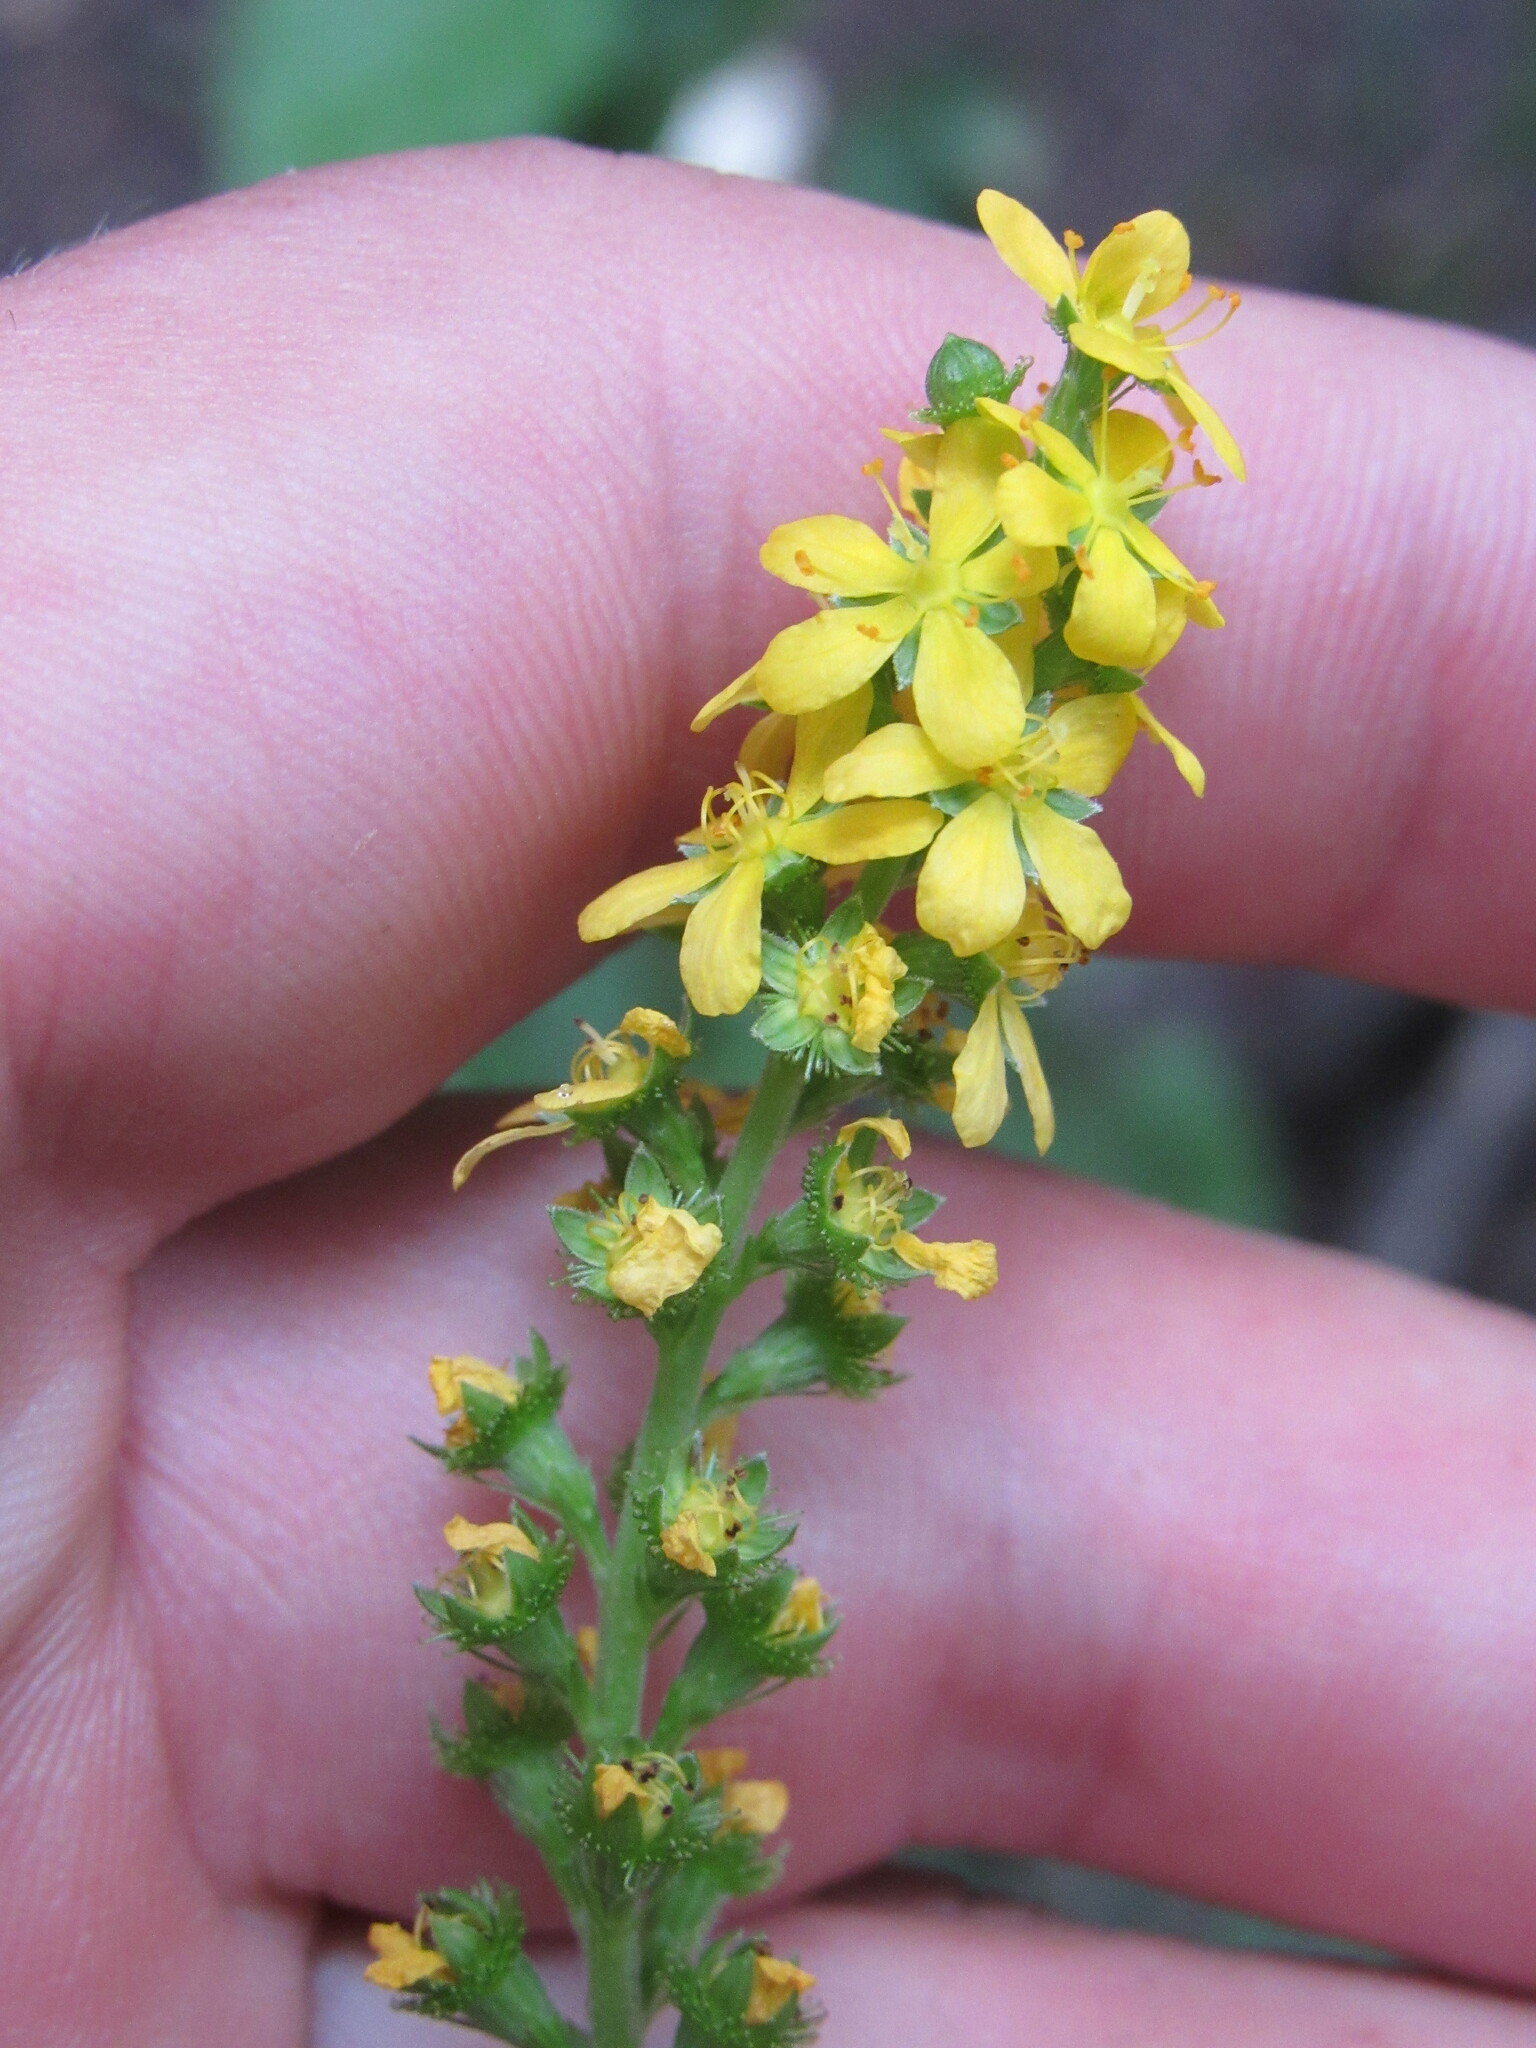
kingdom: Plantae
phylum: Tracheophyta
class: Magnoliopsida
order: Rosales
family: Rosaceae
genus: Agrimonia
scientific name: Agrimonia striata
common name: Britton's agrimony
